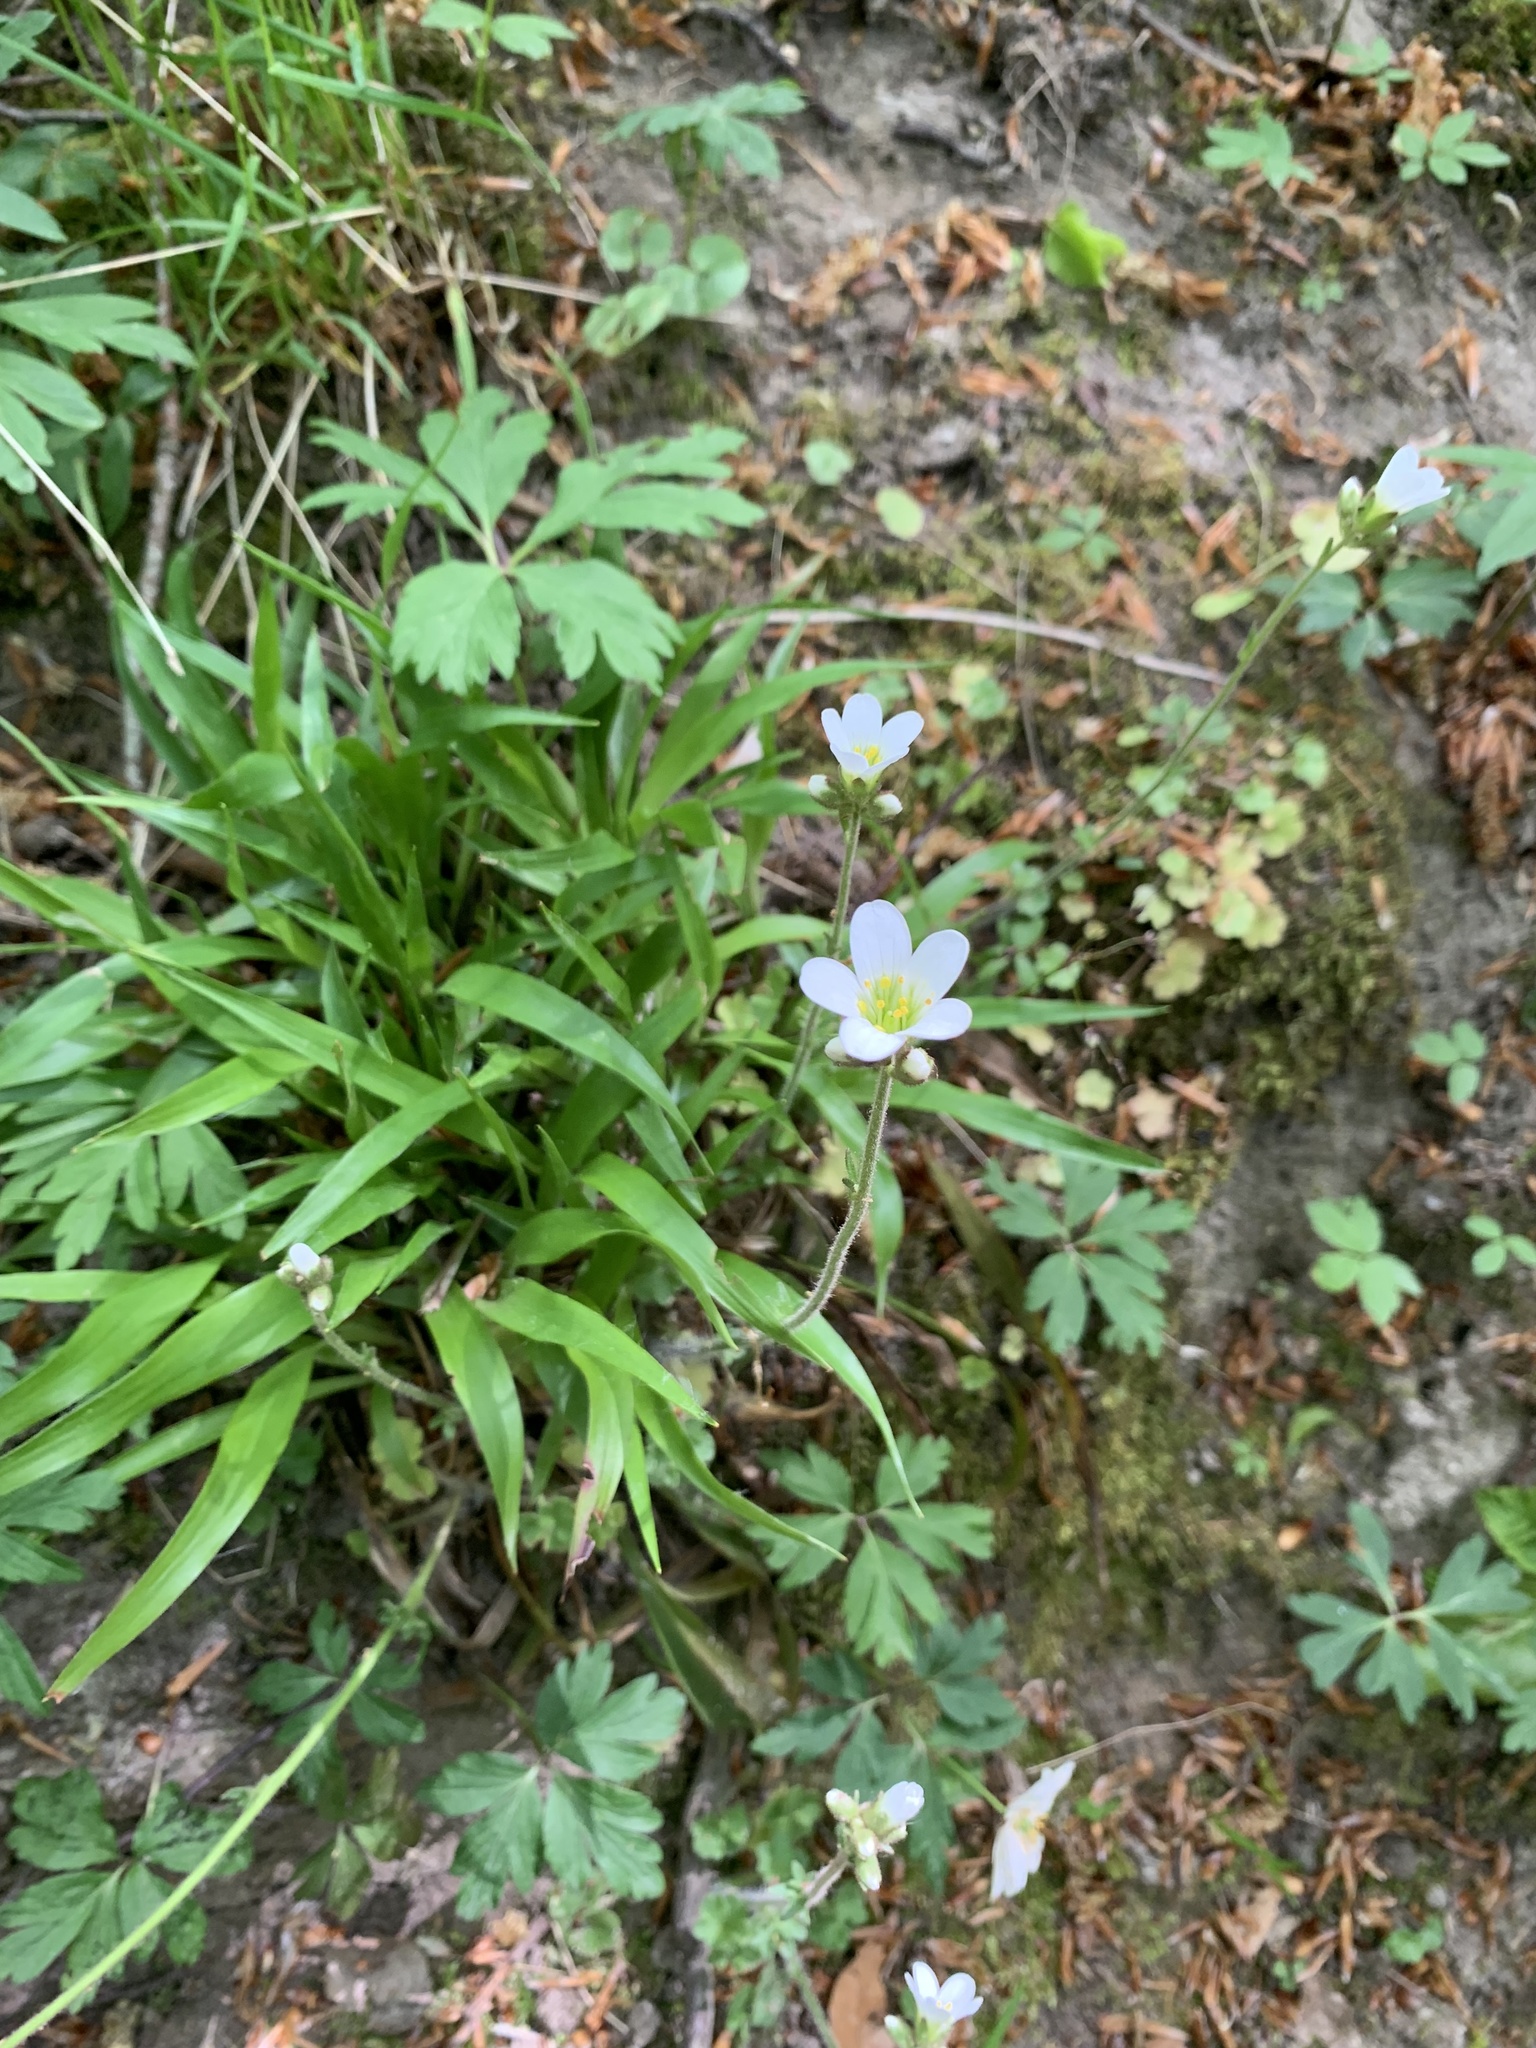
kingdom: Plantae
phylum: Tracheophyta
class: Magnoliopsida
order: Saxifragales
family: Saxifragaceae
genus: Saxifraga
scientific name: Saxifraga granulata
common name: Meadow saxifrage
